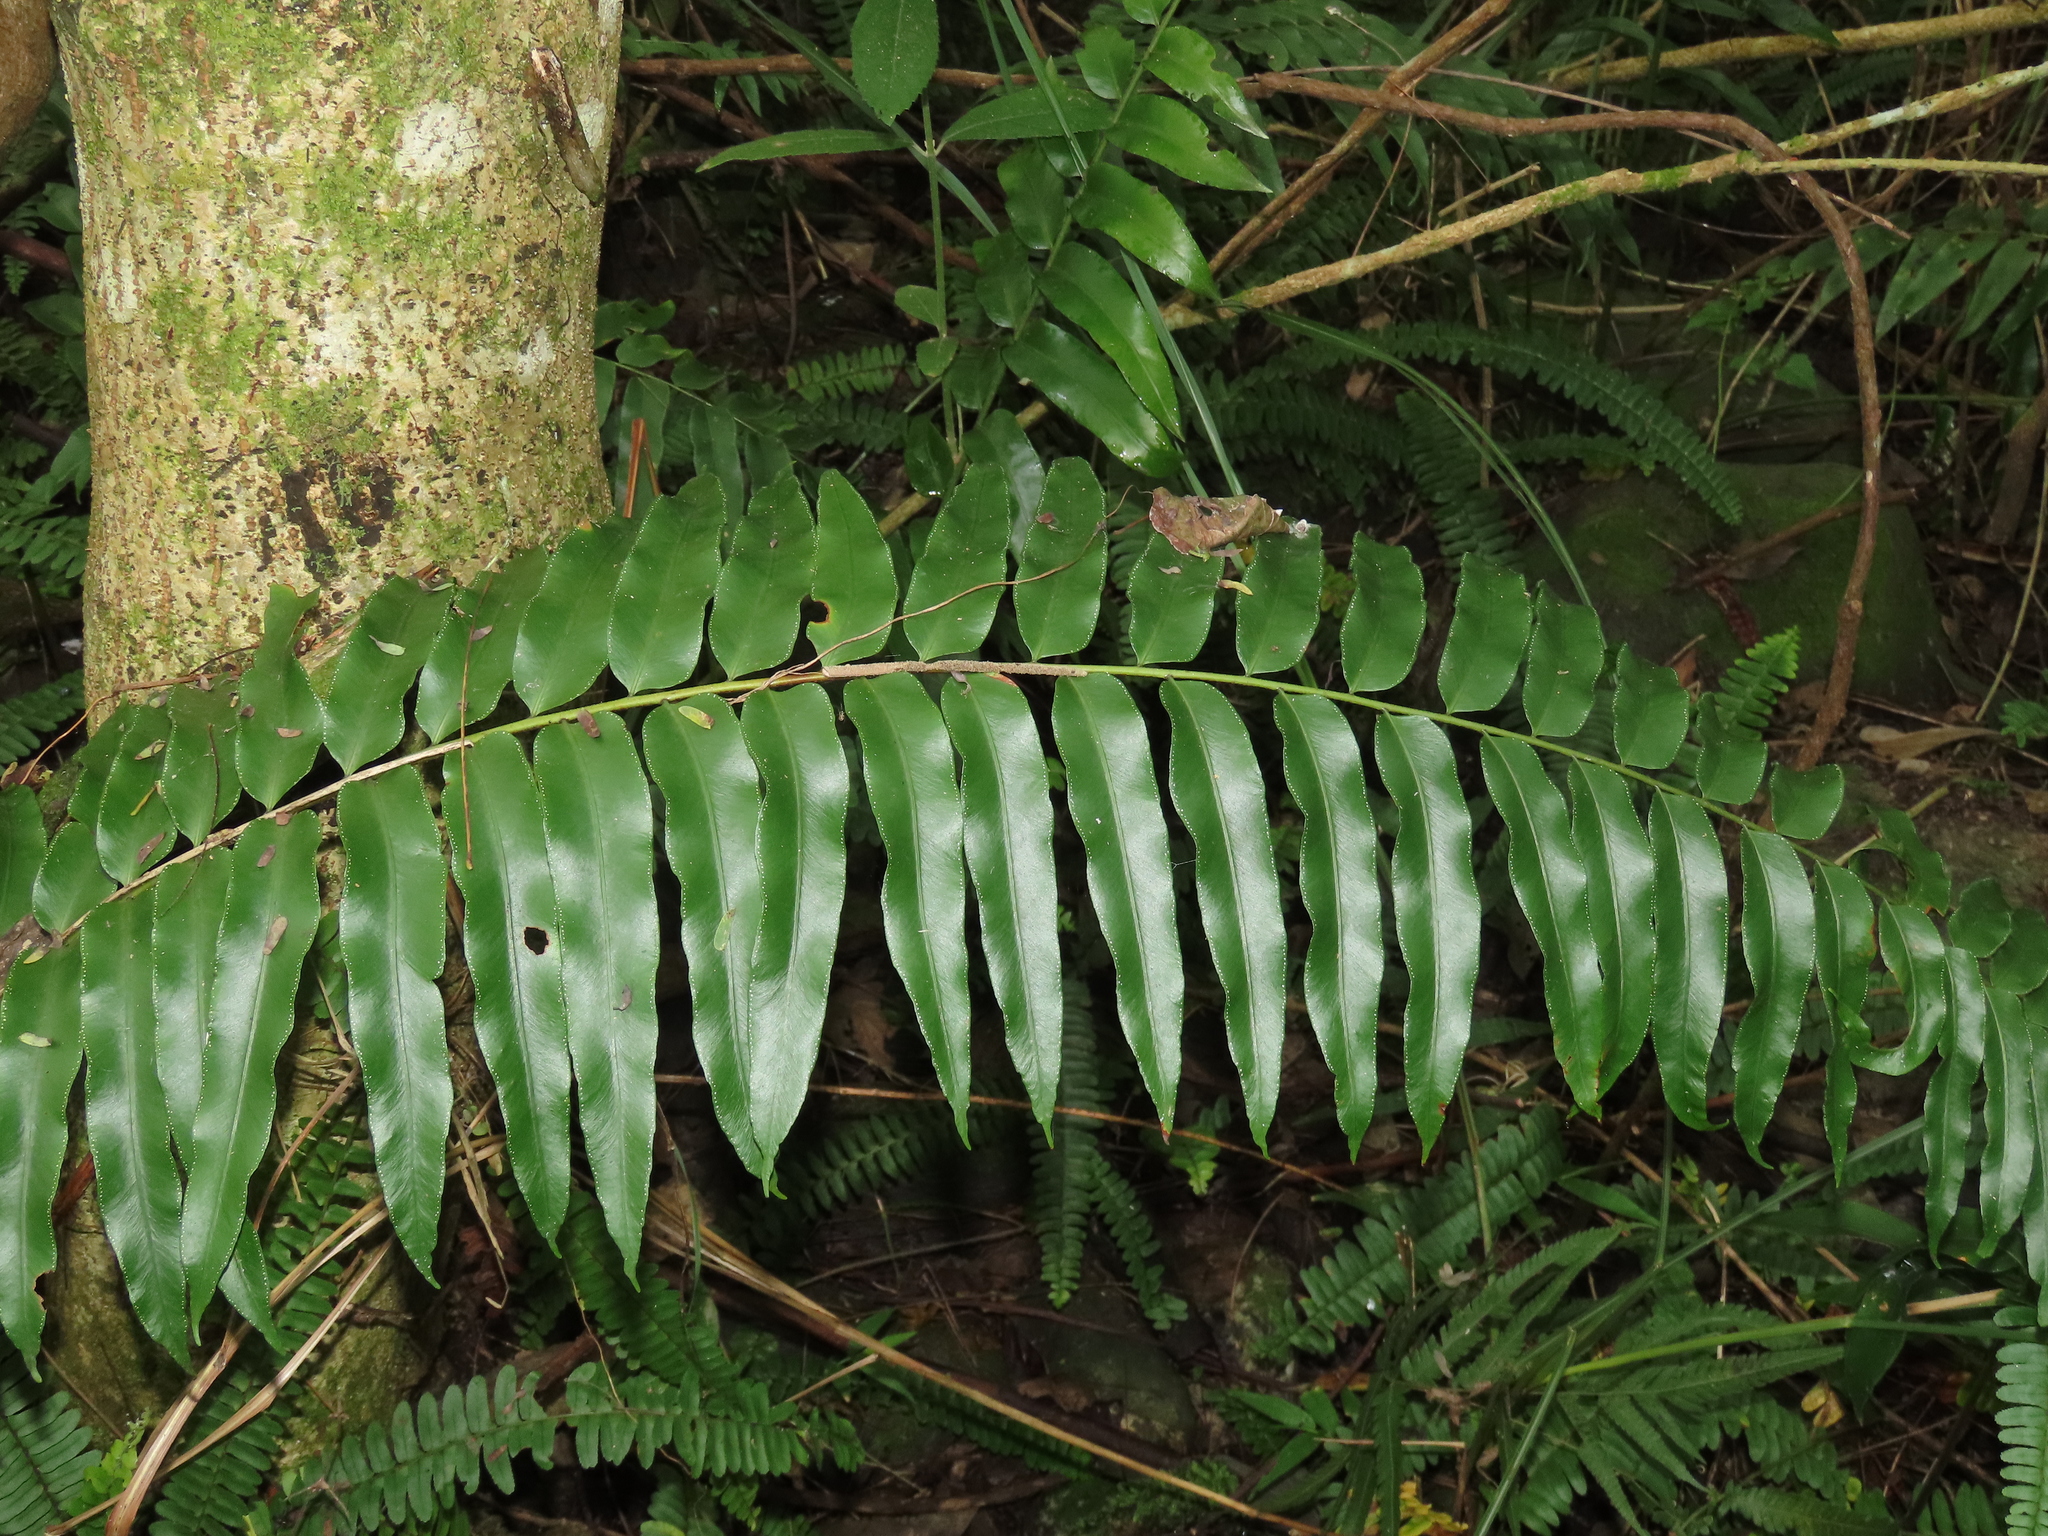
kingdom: Plantae
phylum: Tracheophyta
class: Polypodiopsida
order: Polypodiales
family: Nephrolepidaceae
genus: Nephrolepis
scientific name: Nephrolepis biserrata
